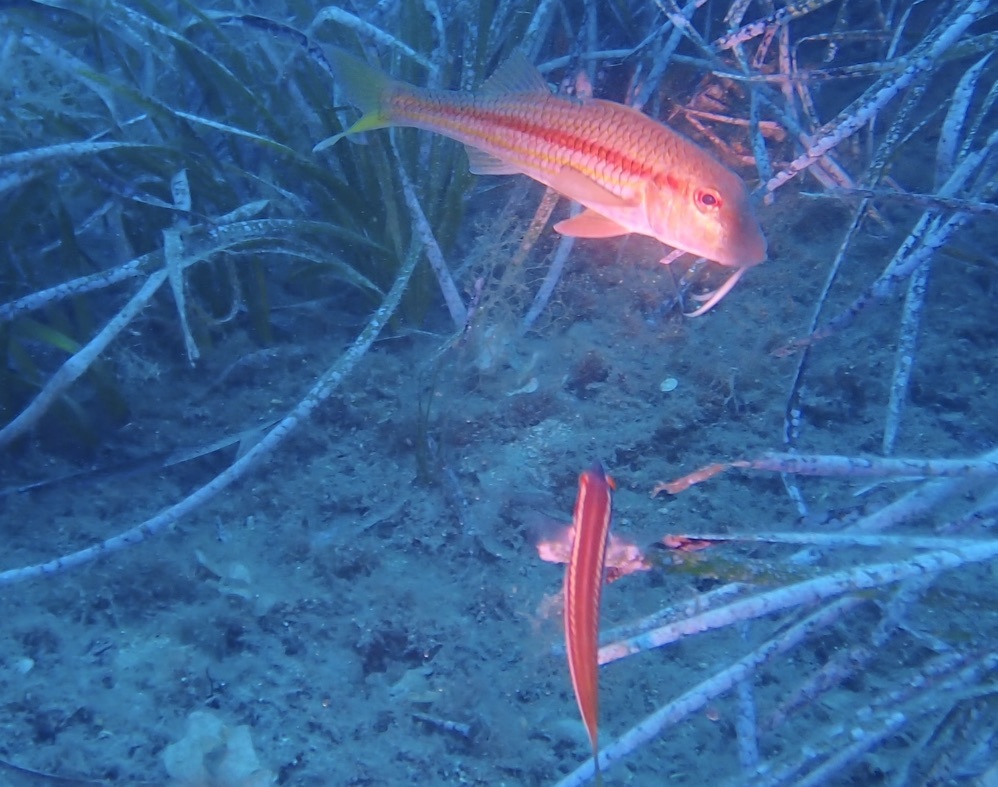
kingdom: Animalia
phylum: Chordata
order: Perciformes
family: Mullidae
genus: Mullus
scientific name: Mullus surmuletus
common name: Red mullet
